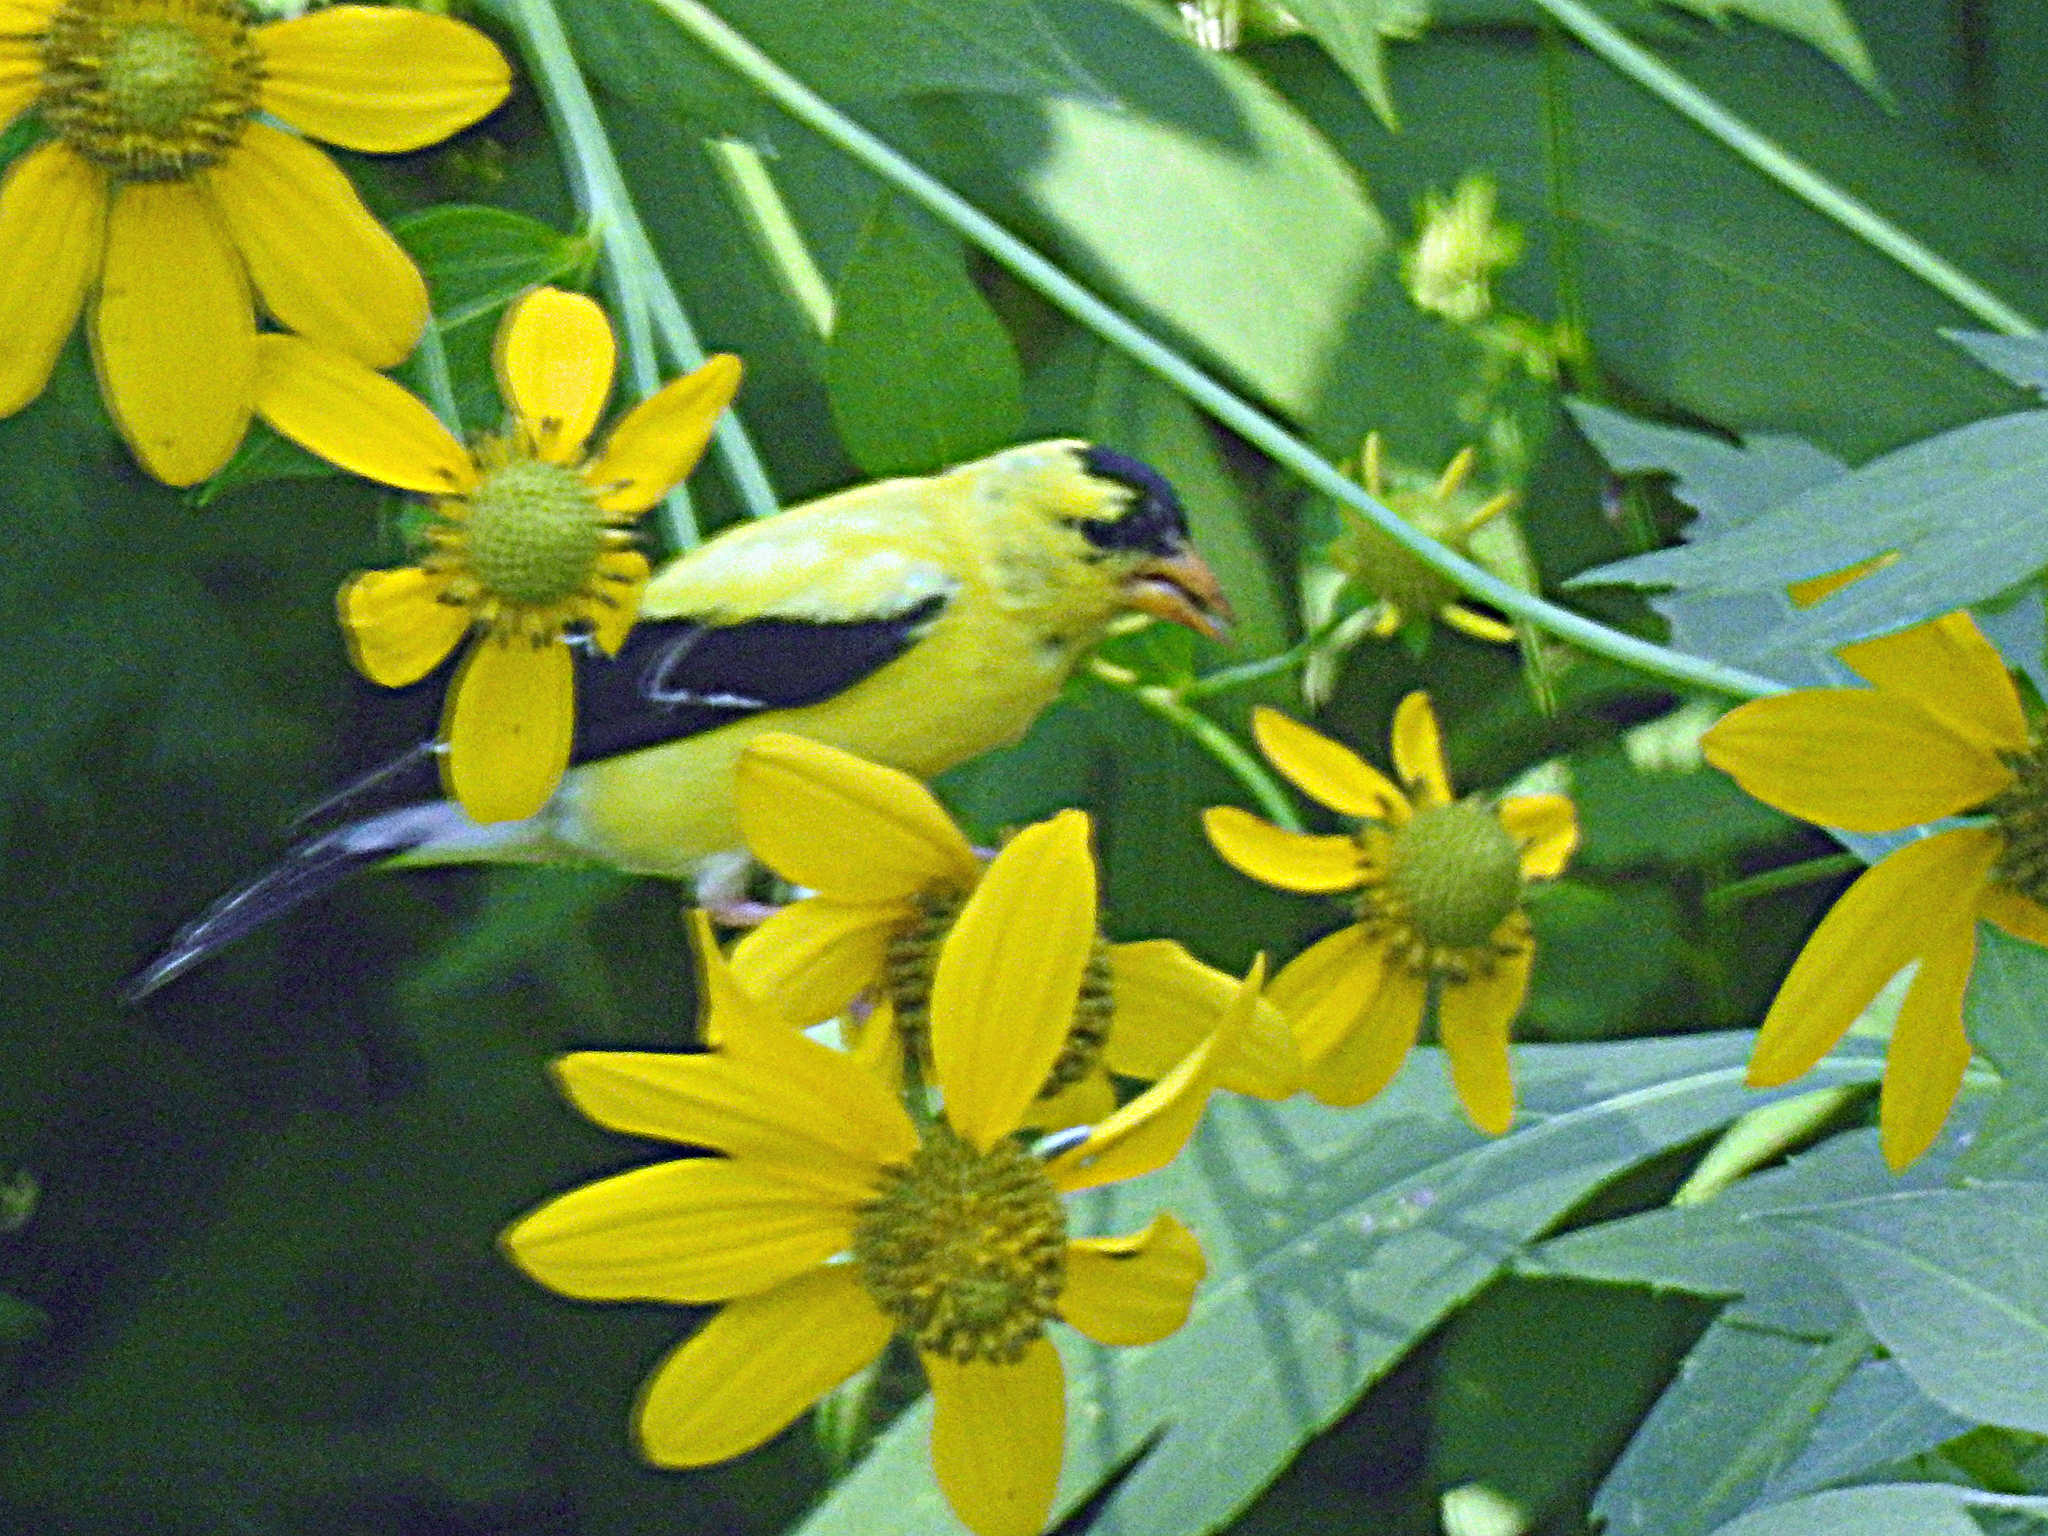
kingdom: Animalia
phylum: Chordata
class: Aves
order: Passeriformes
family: Fringillidae
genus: Spinus
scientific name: Spinus tristis
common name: American goldfinch
